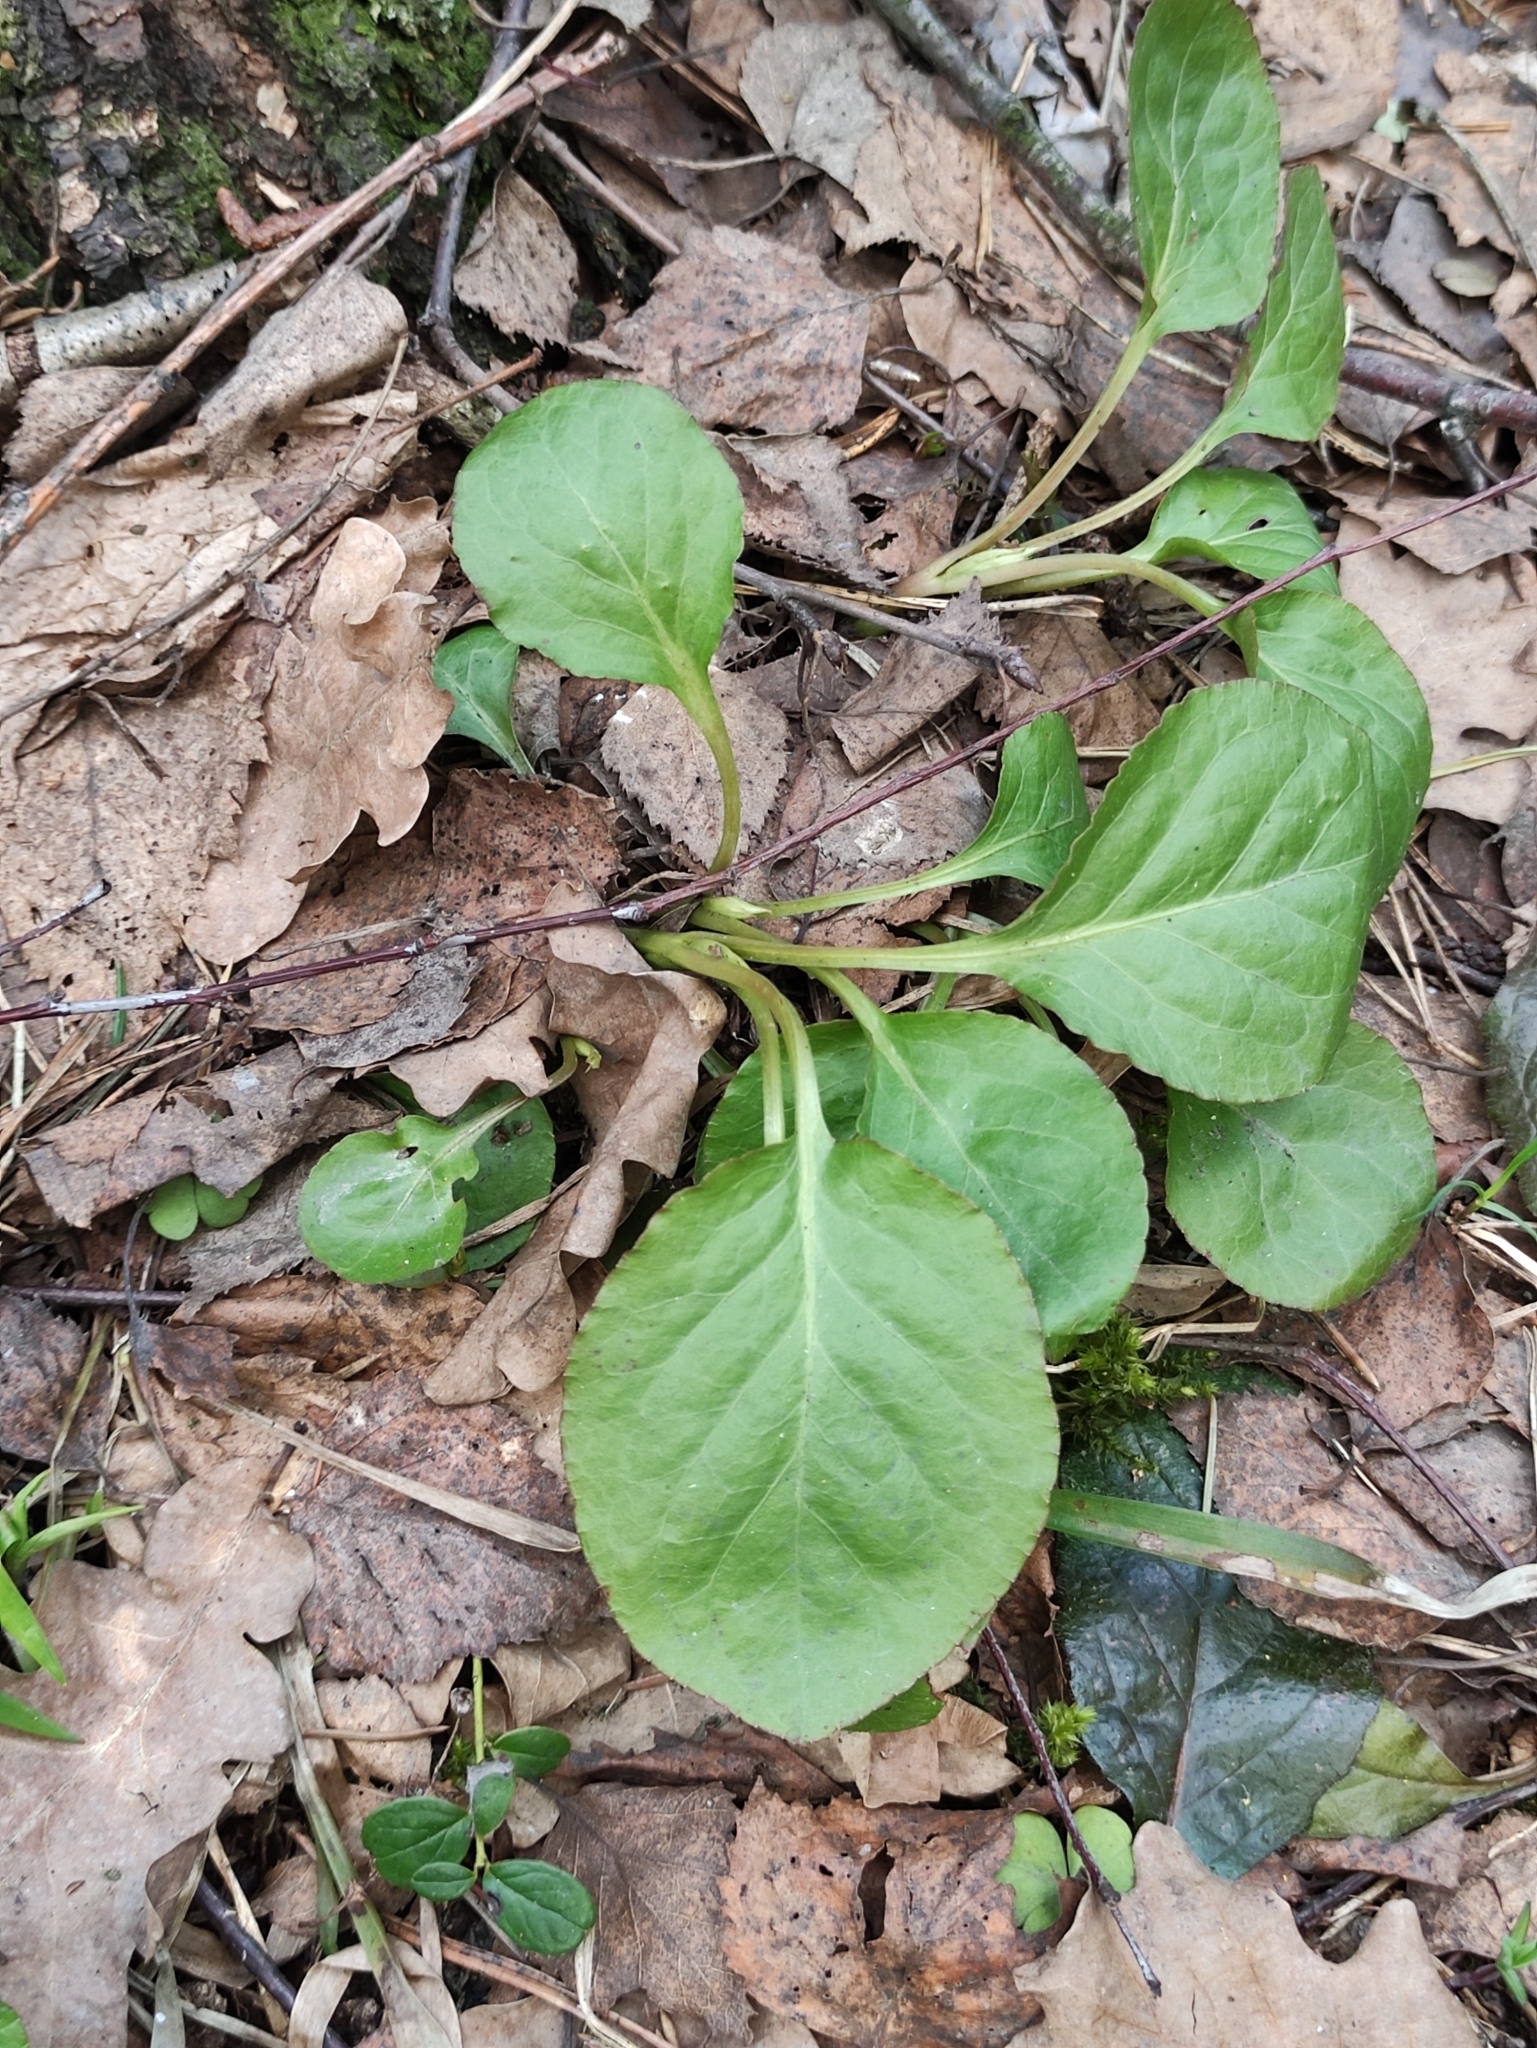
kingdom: Plantae
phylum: Tracheophyta
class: Magnoliopsida
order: Ericales
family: Ericaceae
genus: Orthilia
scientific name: Orthilia secunda
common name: One-sided orthilia
